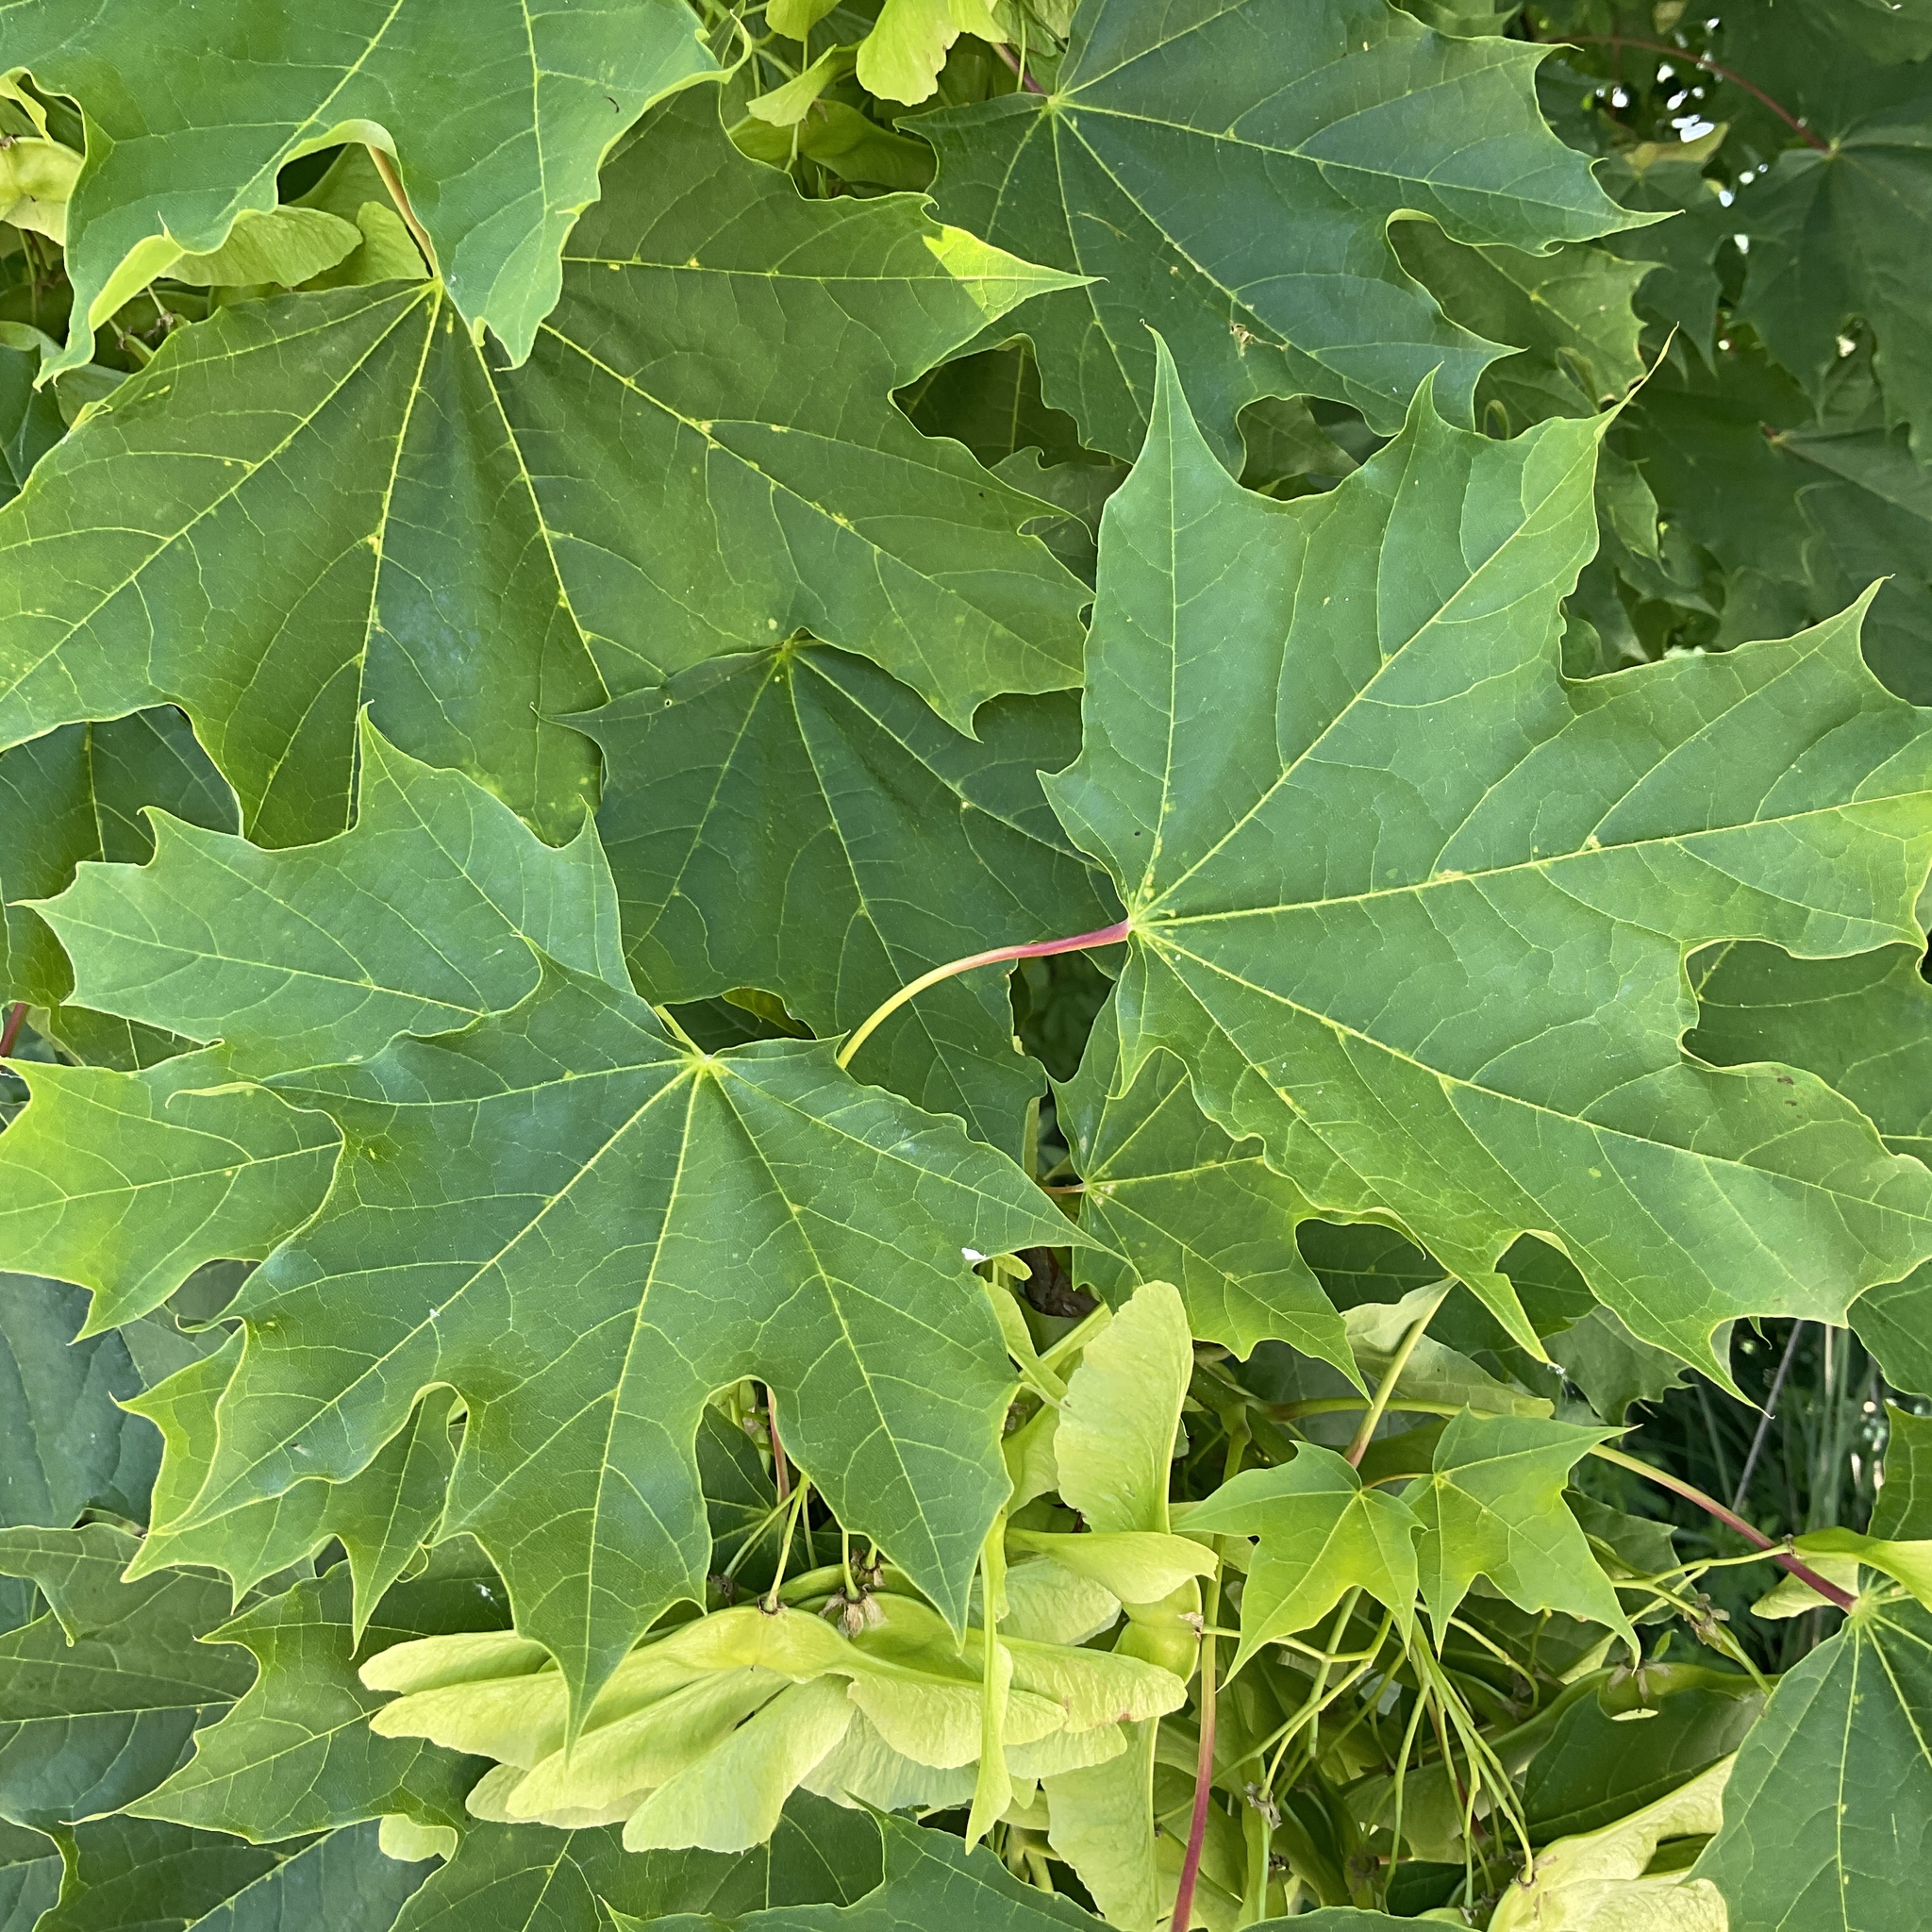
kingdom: Plantae
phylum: Tracheophyta
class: Magnoliopsida
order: Sapindales
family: Sapindaceae
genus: Acer
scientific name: Acer platanoides
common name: Norway maple
